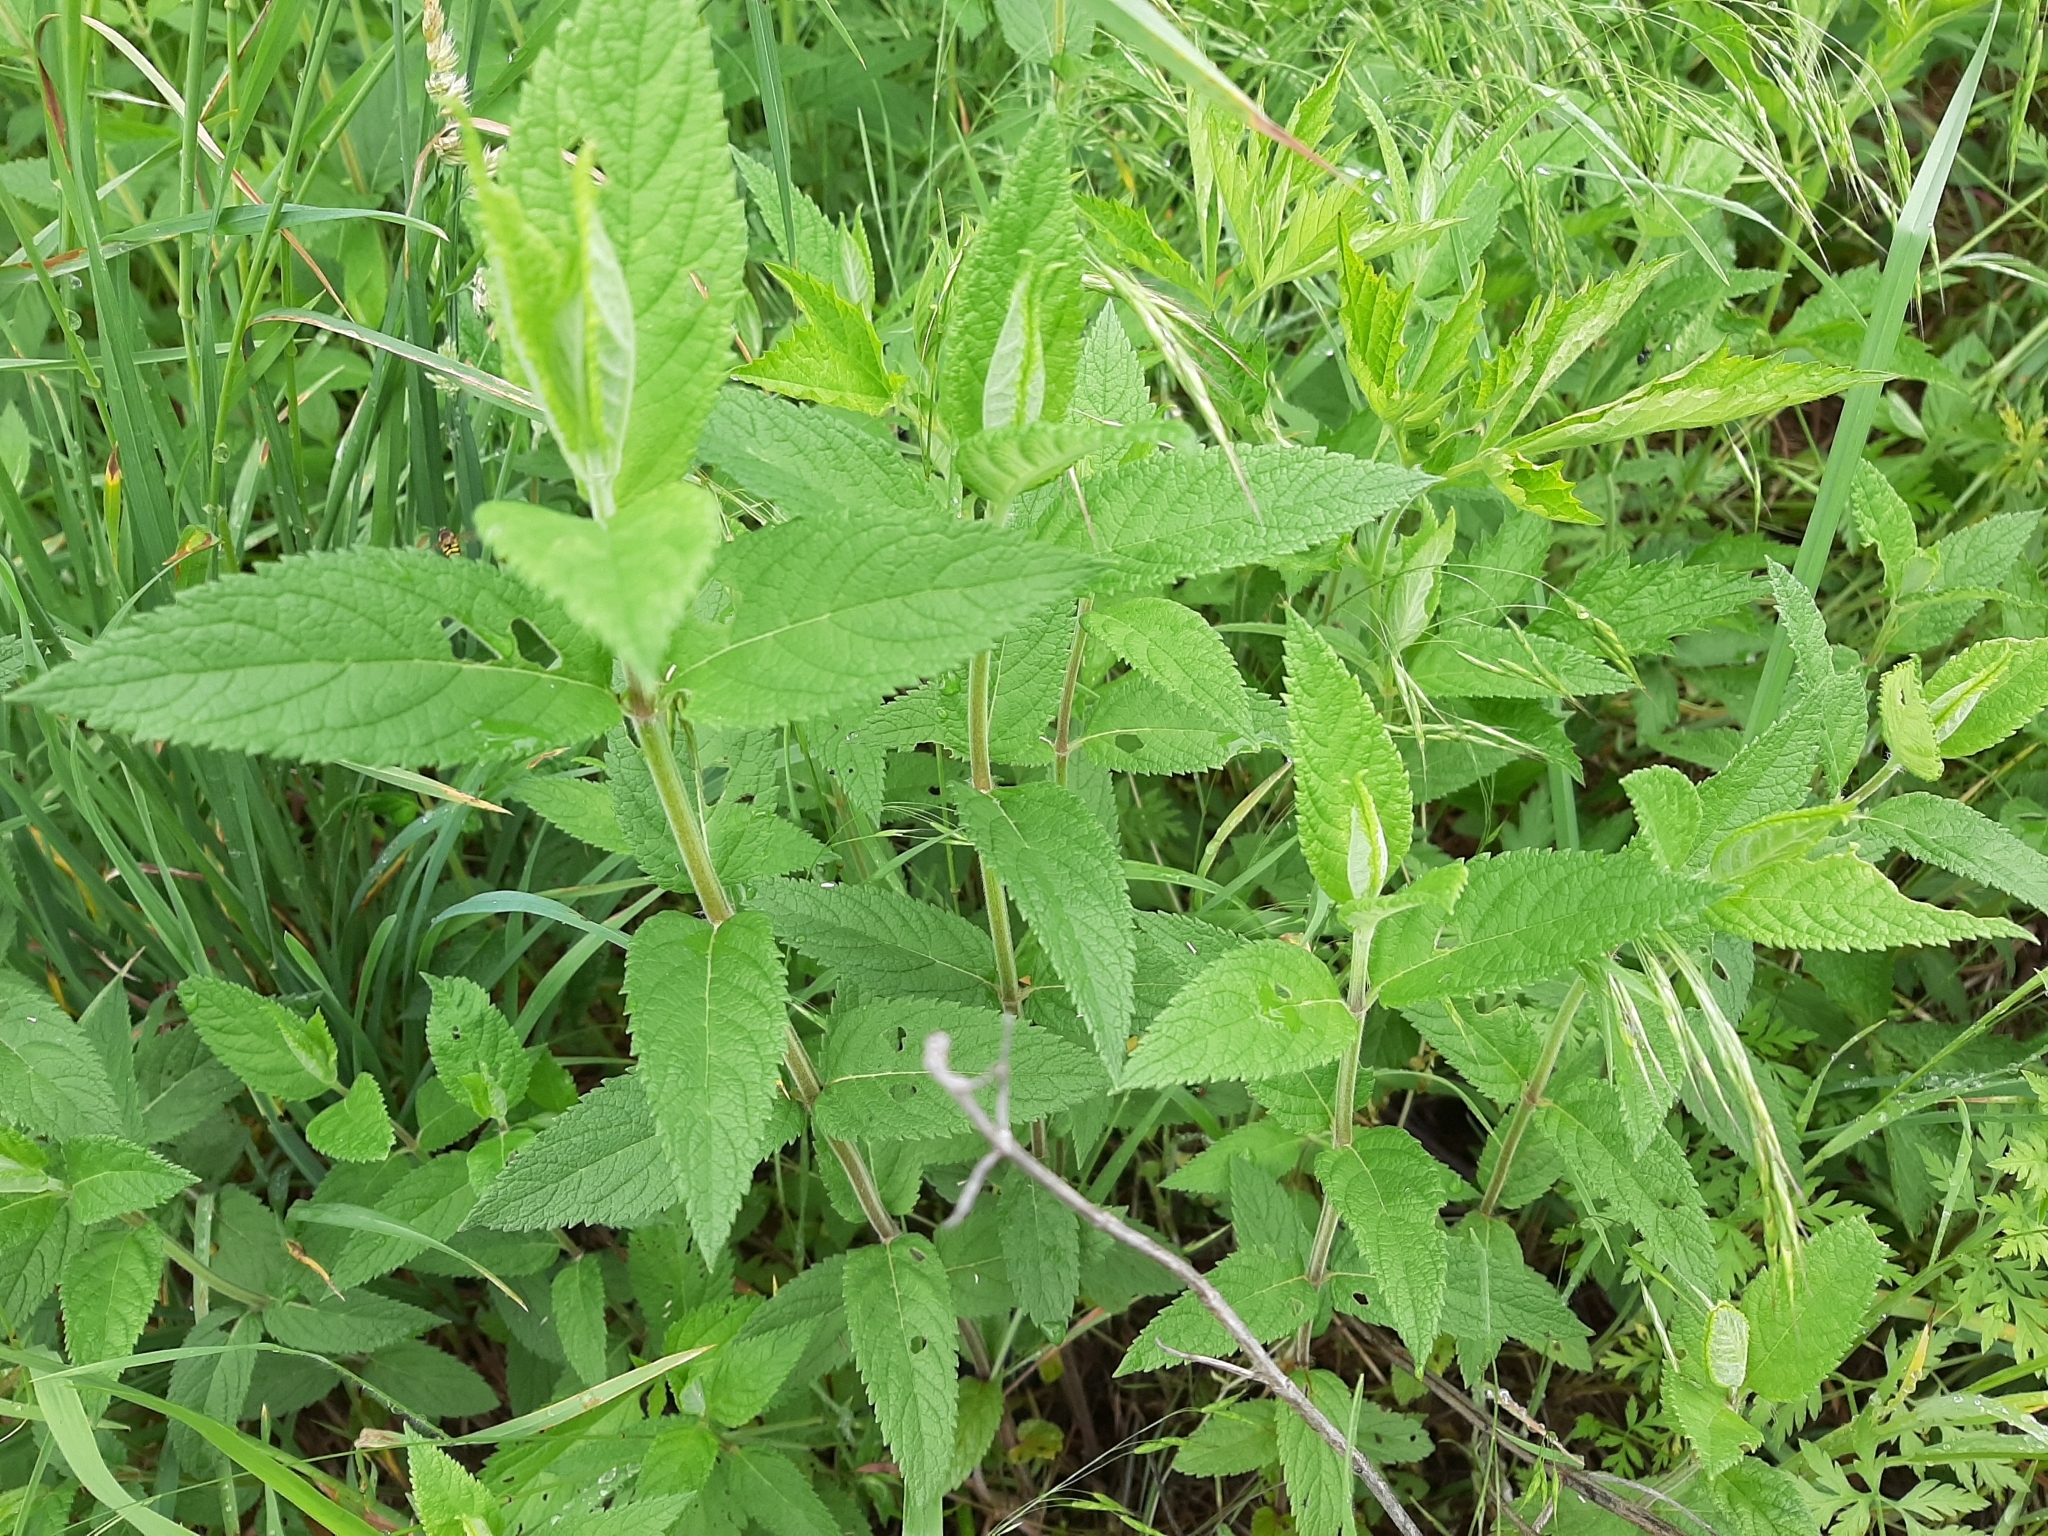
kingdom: Plantae
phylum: Tracheophyta
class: Magnoliopsida
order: Lamiales
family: Lamiaceae
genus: Teucrium
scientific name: Teucrium canadense
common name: American germander
